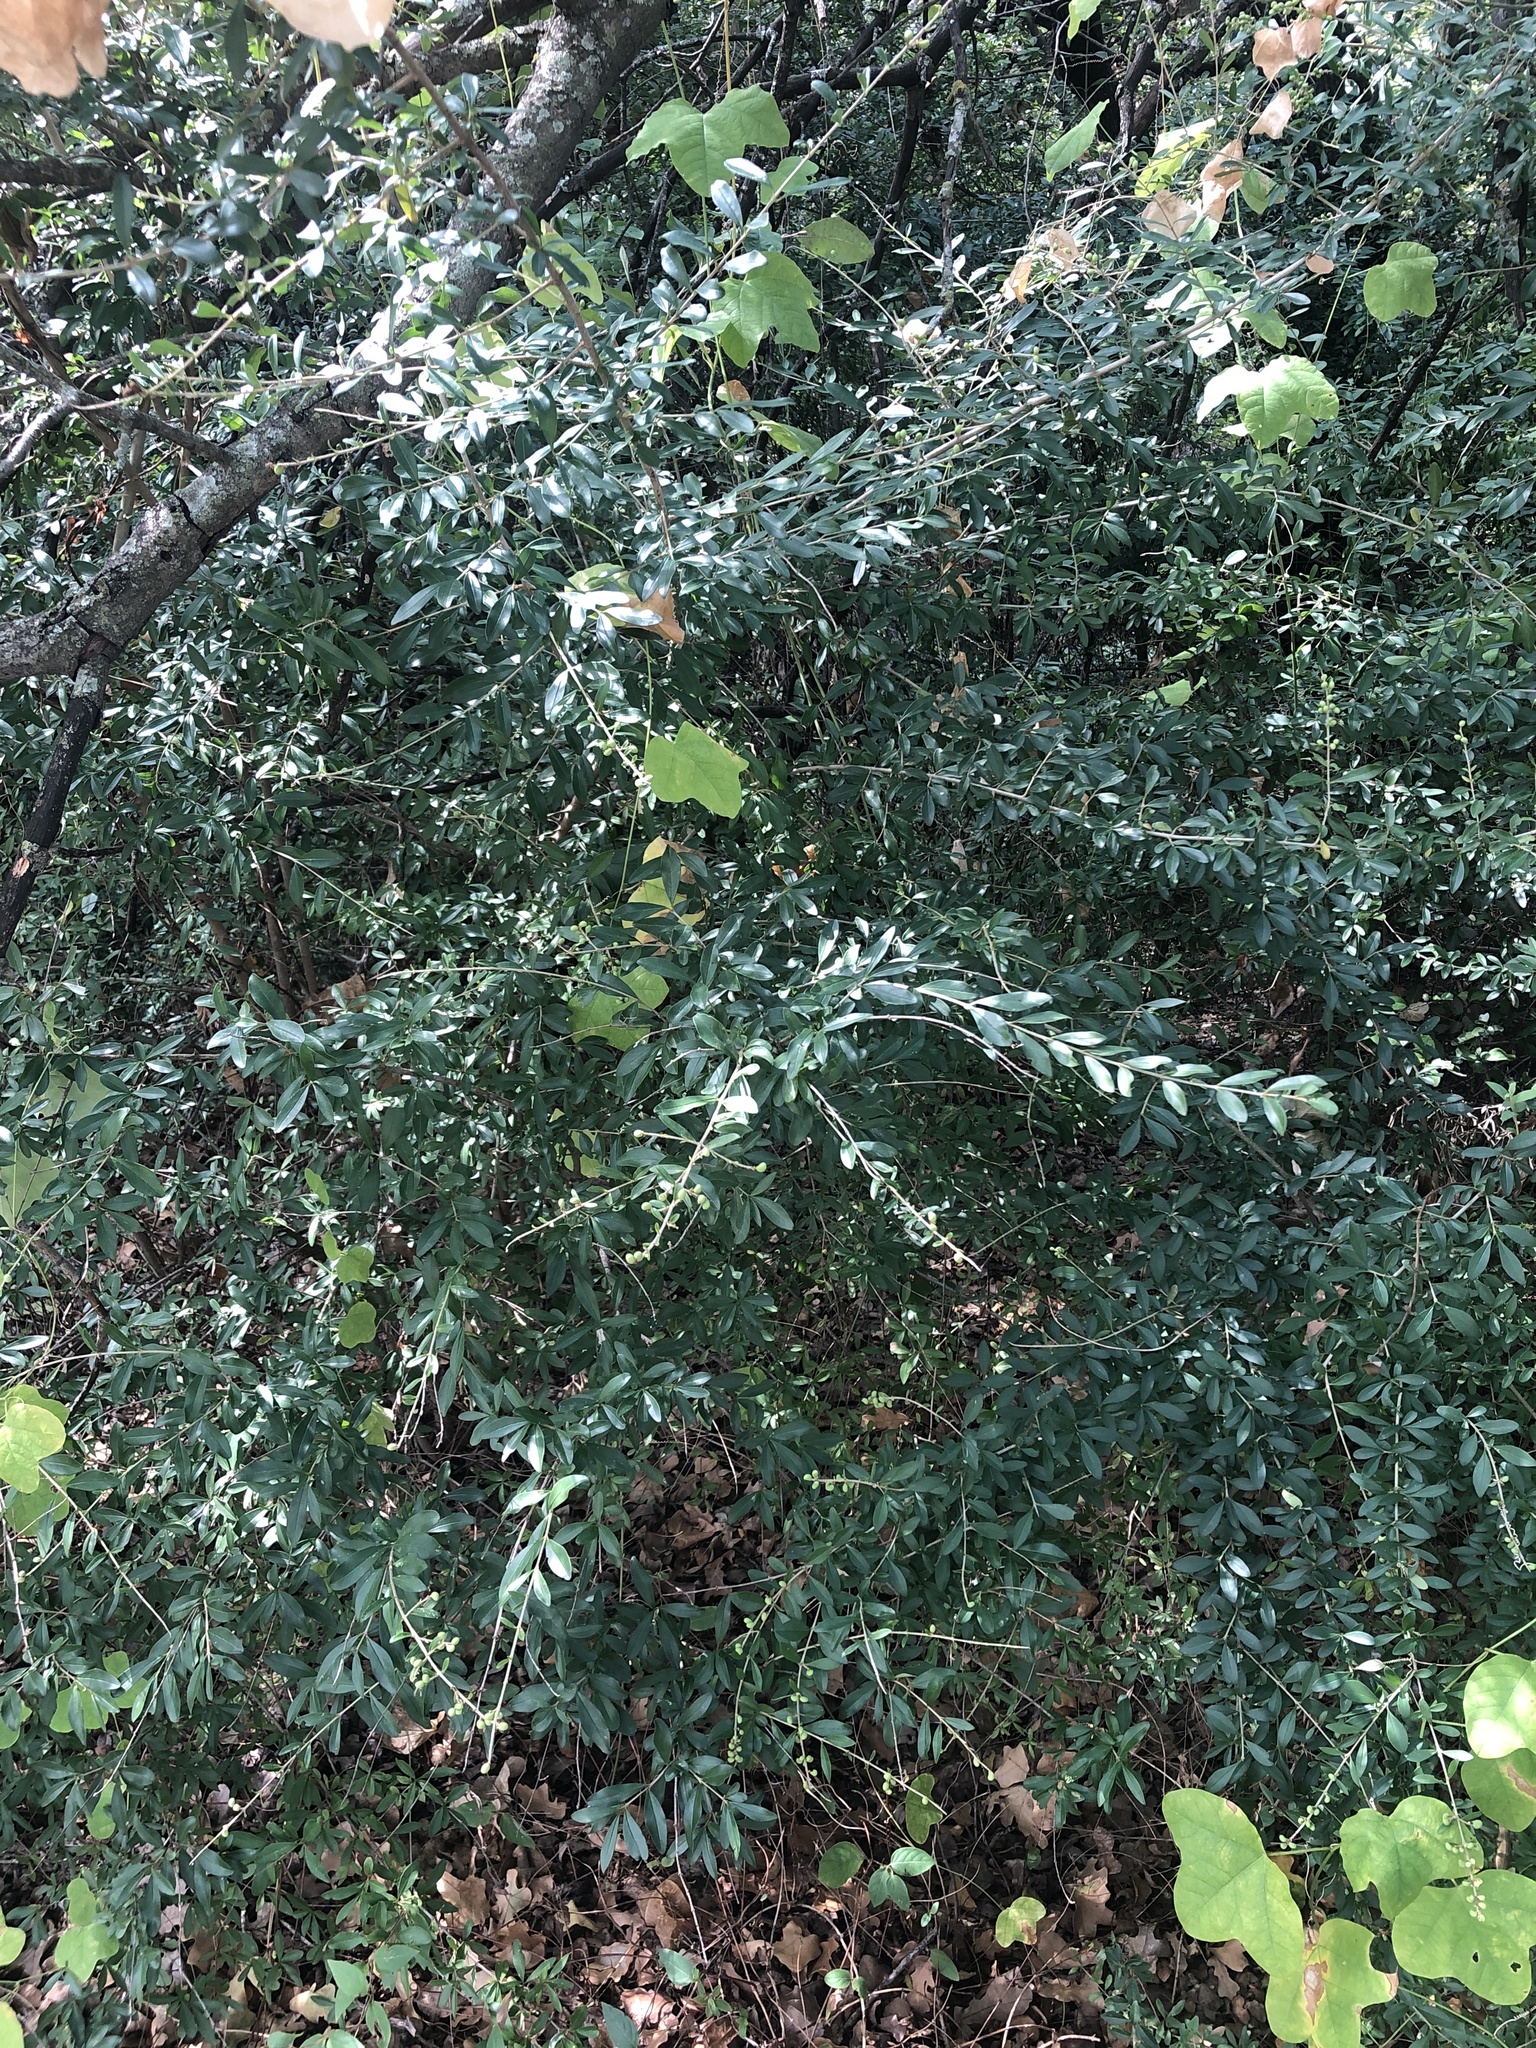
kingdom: Plantae
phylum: Tracheophyta
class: Magnoliopsida
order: Lamiales
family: Oleaceae
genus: Ligustrum
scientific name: Ligustrum quihoui
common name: Waxyleaf privet
